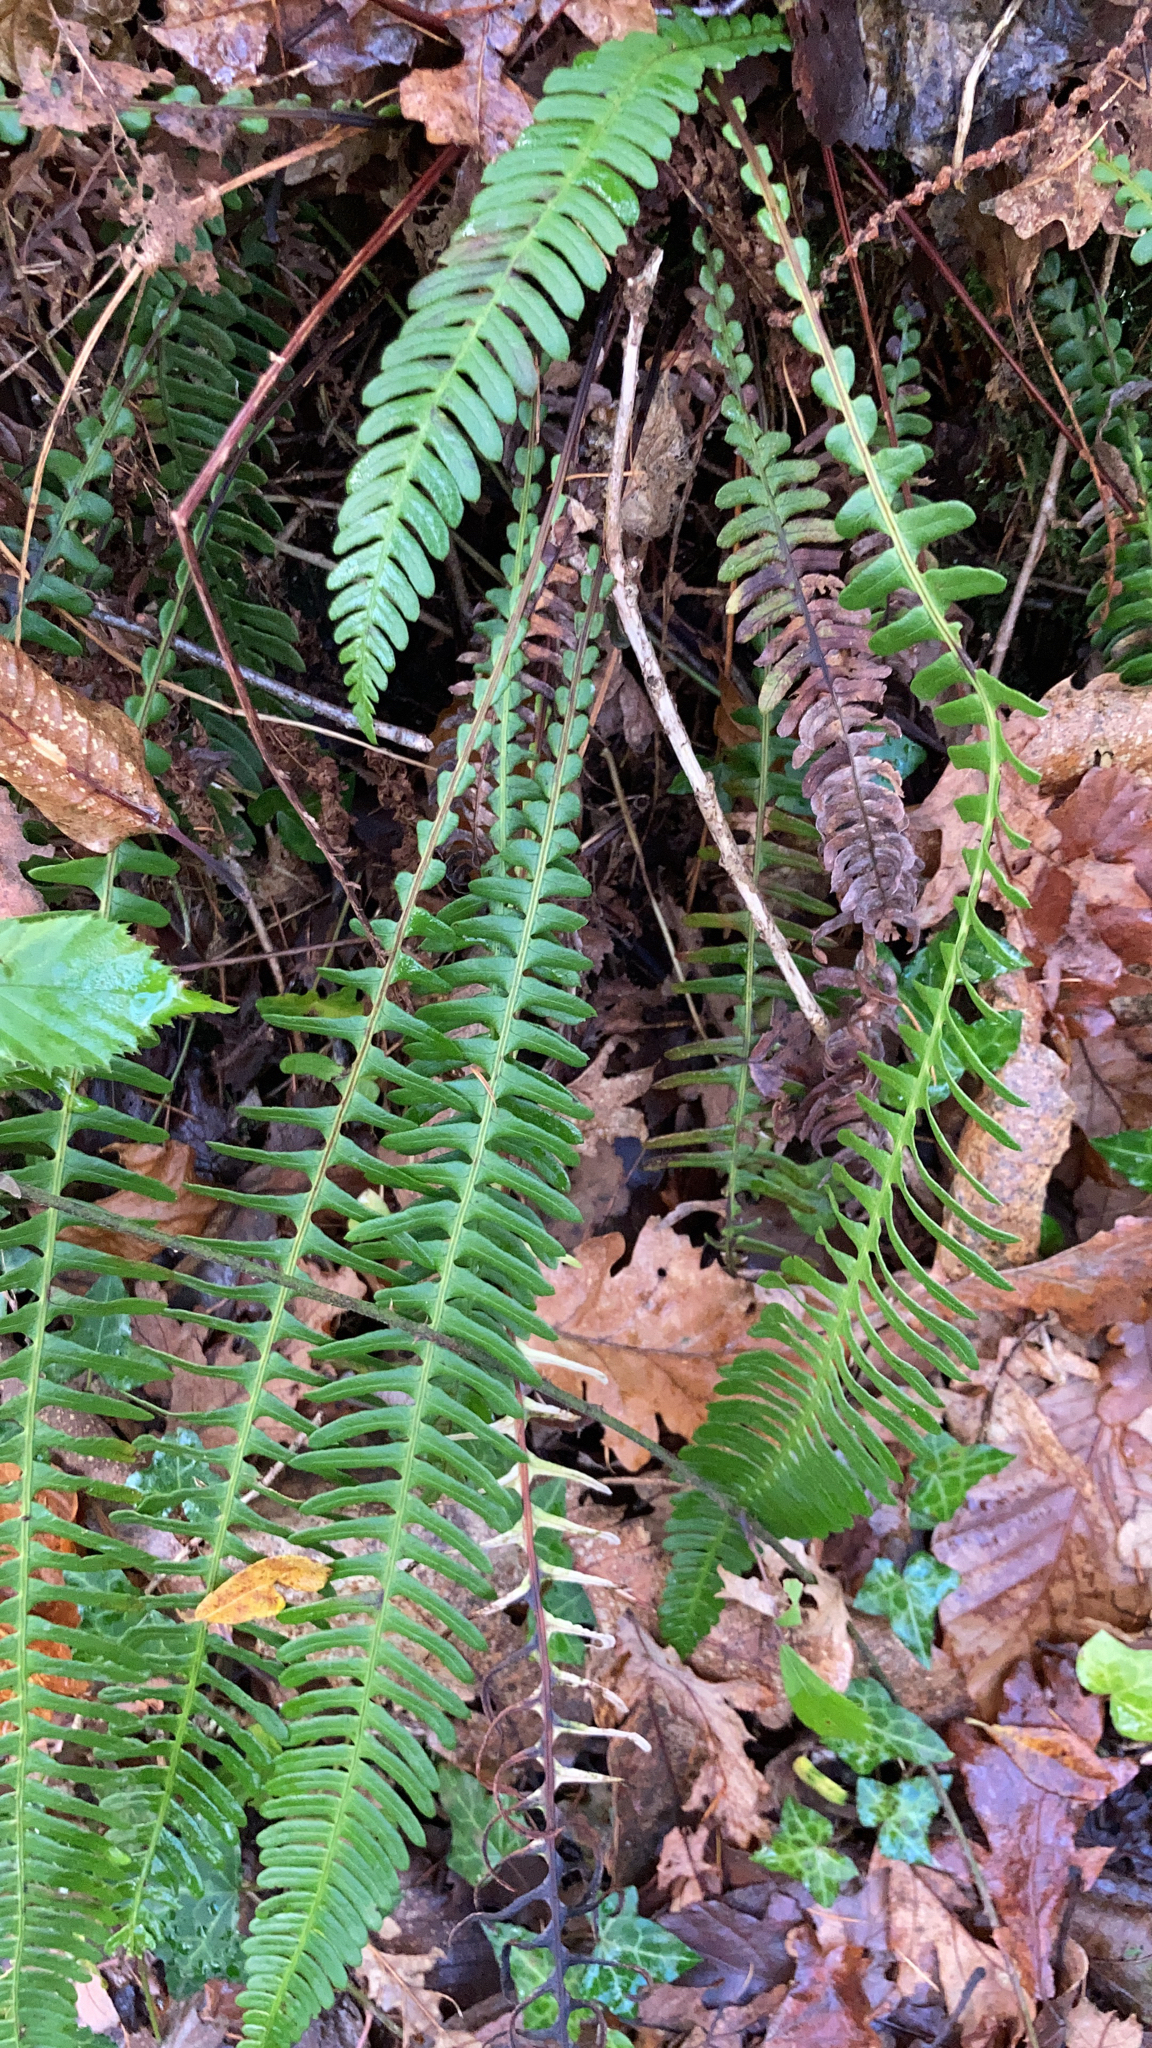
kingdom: Plantae
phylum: Tracheophyta
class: Polypodiopsida
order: Polypodiales
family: Blechnaceae
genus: Struthiopteris
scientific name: Struthiopteris spicant
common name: Deer fern
